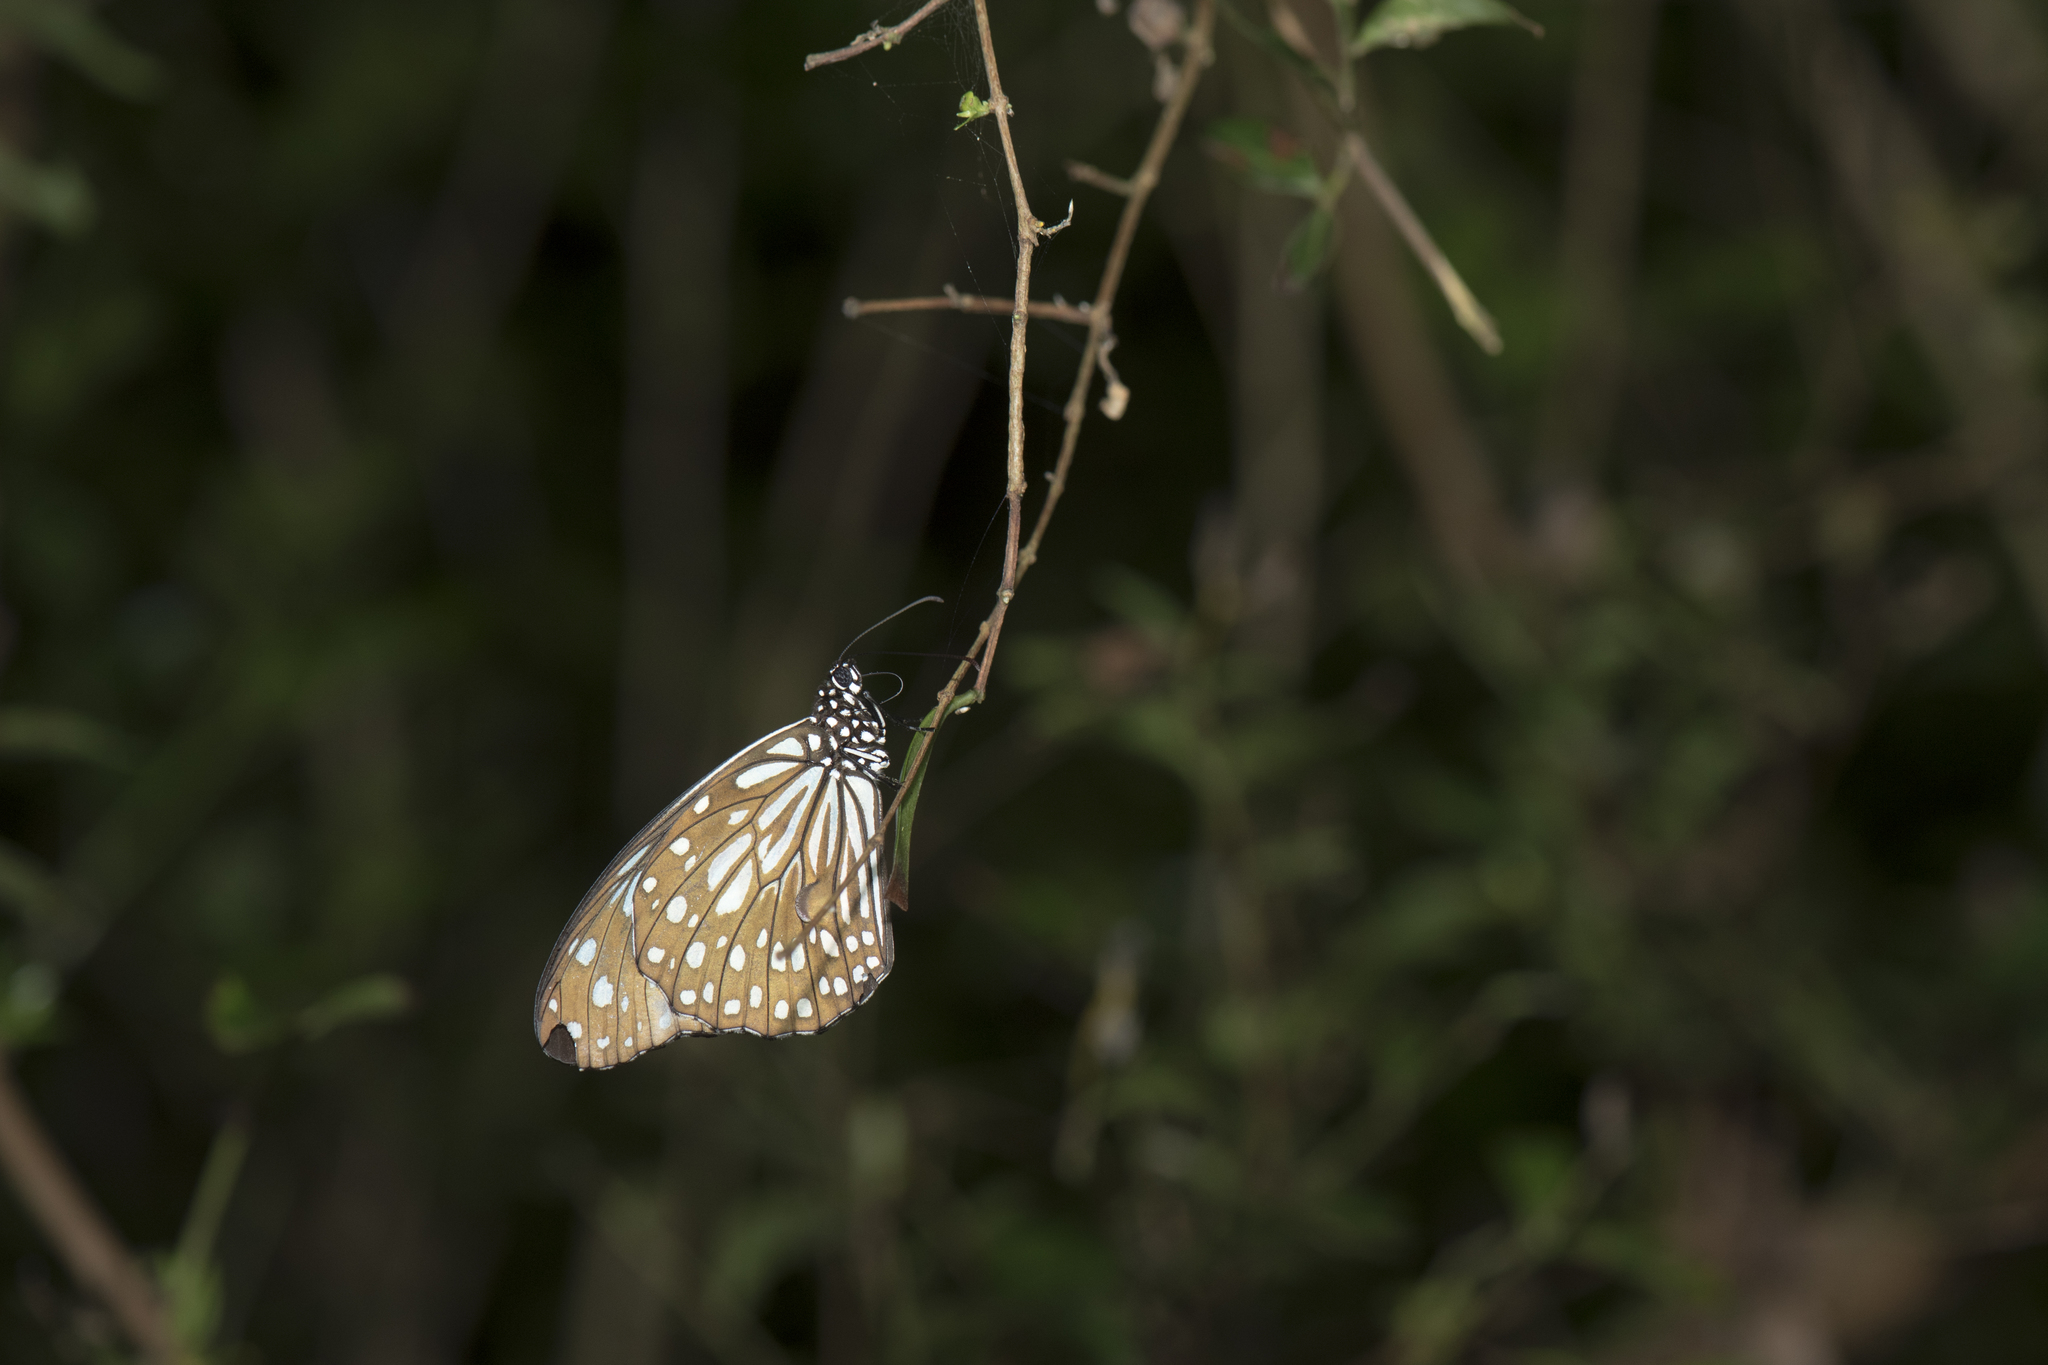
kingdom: Animalia
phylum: Arthropoda
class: Insecta
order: Lepidoptera
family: Nymphalidae
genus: Tirumala
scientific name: Tirumala limniace
